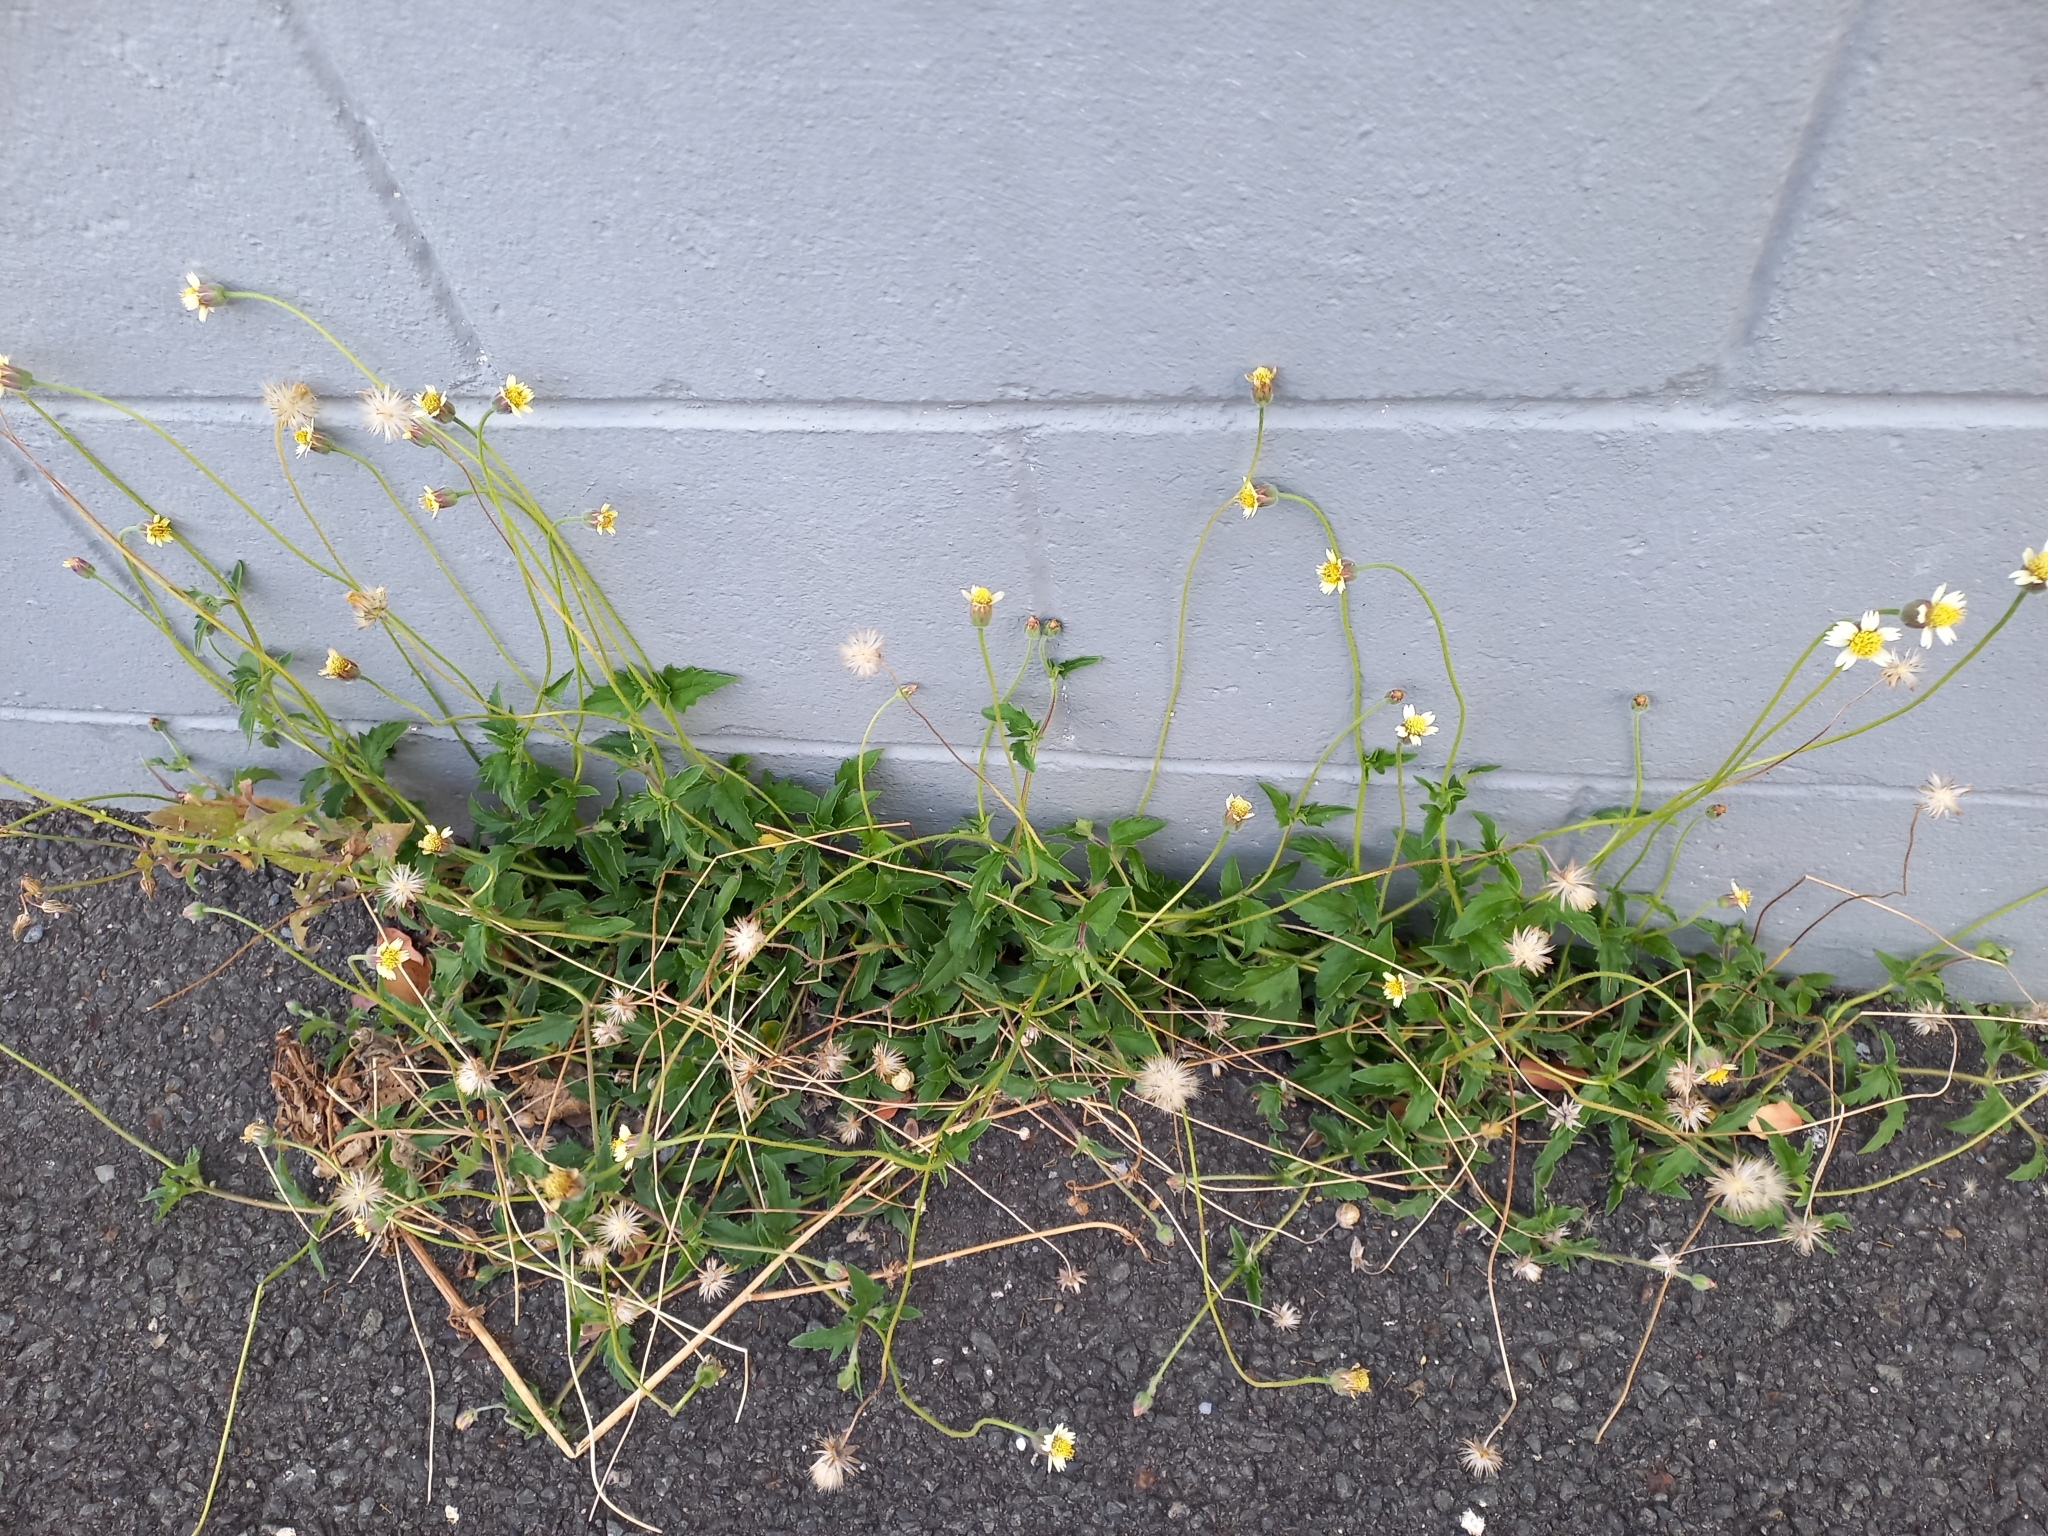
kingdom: Plantae
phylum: Tracheophyta
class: Magnoliopsida
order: Asterales
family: Asteraceae
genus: Tridax
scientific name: Tridax procumbens
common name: Coatbuttons
